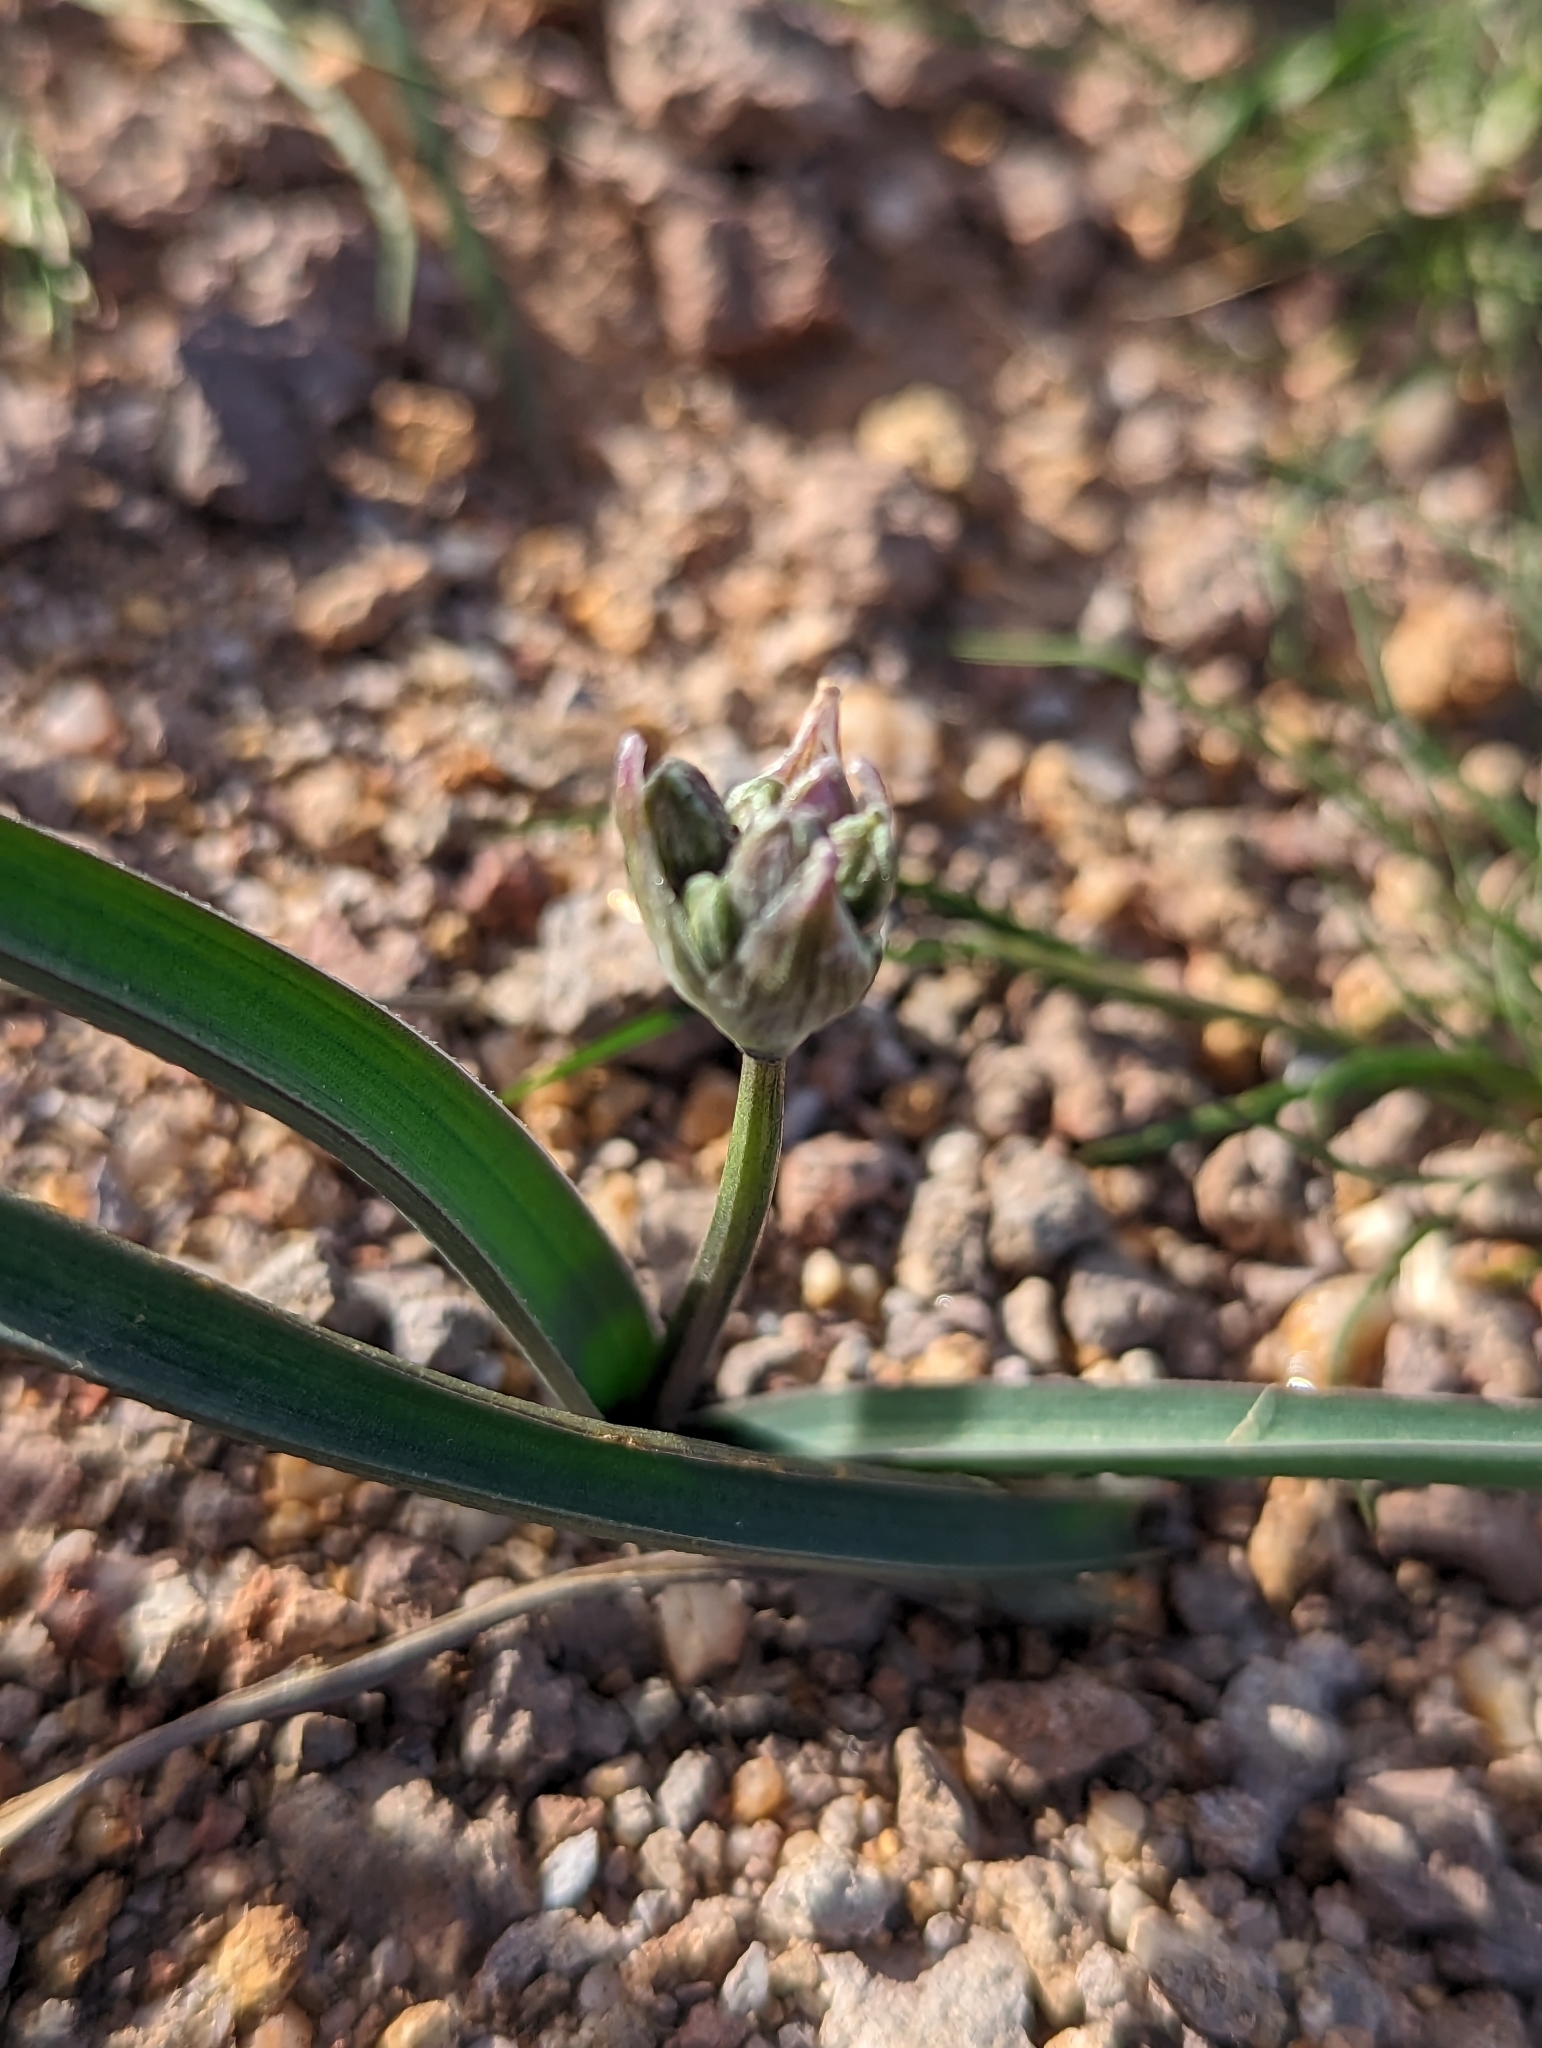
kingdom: Plantae
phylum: Tracheophyta
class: Liliopsida
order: Asparagales
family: Asparagaceae
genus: Dipterostemon
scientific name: Dipterostemon capitatus
